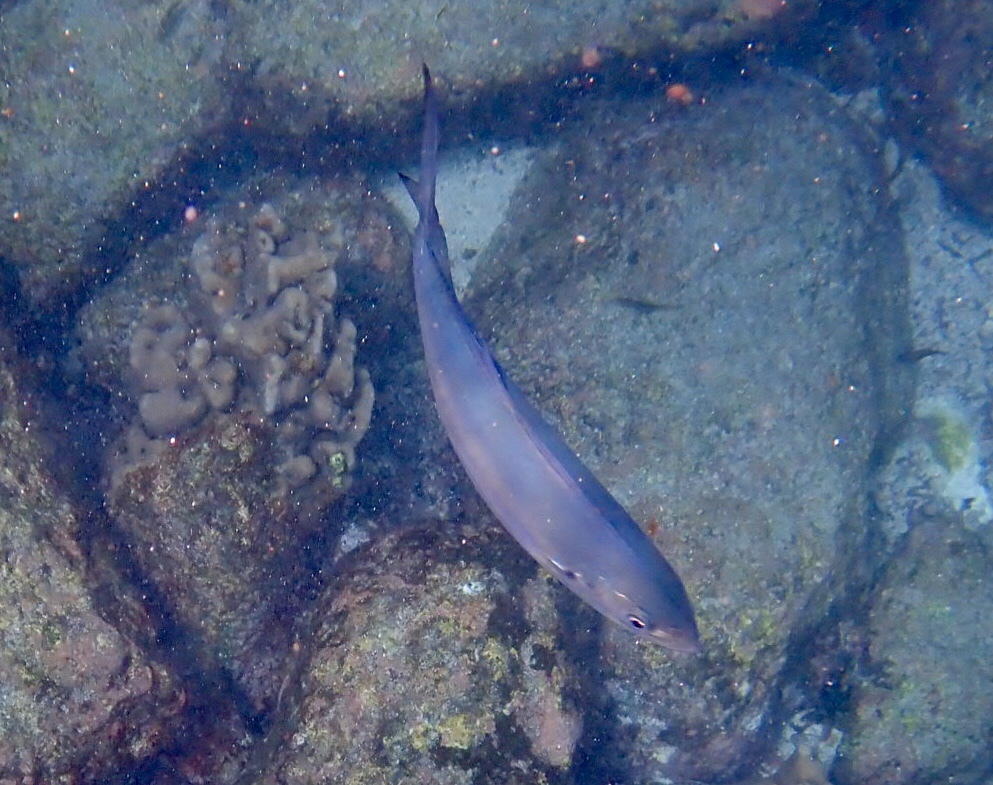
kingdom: Animalia
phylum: Chordata
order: Perciformes
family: Carangidae
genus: Caranx
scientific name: Caranx caballus
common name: Green jack
